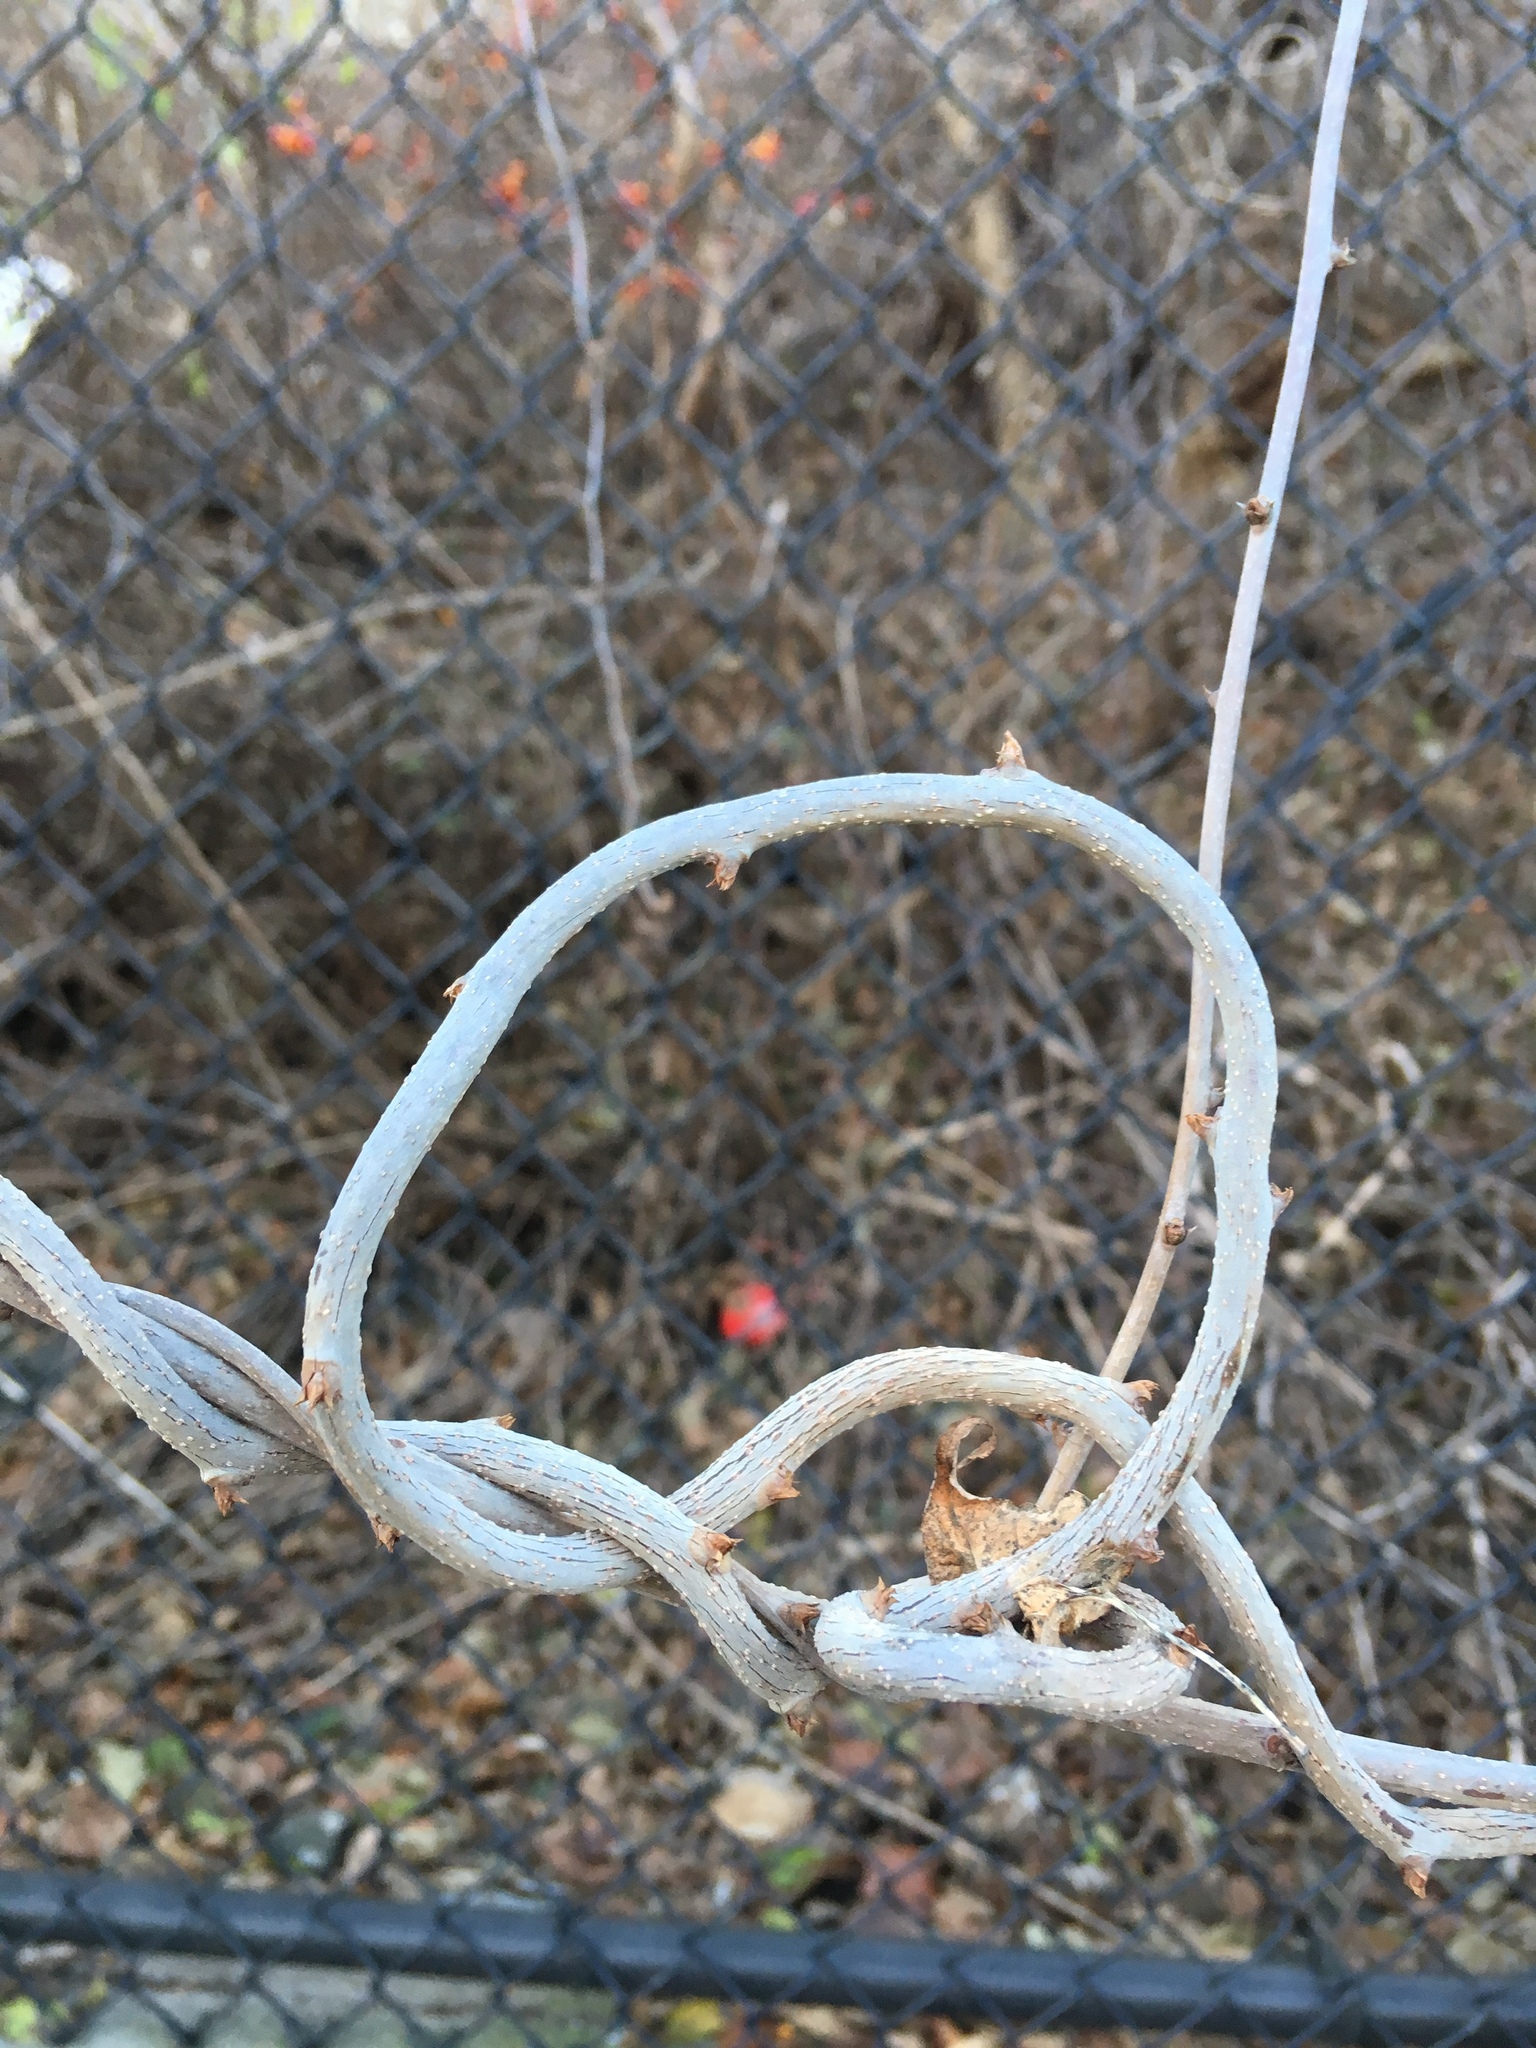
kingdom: Plantae
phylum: Tracheophyta
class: Magnoliopsida
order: Celastrales
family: Celastraceae
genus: Celastrus
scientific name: Celastrus orbiculatus
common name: Oriental bittersweet
